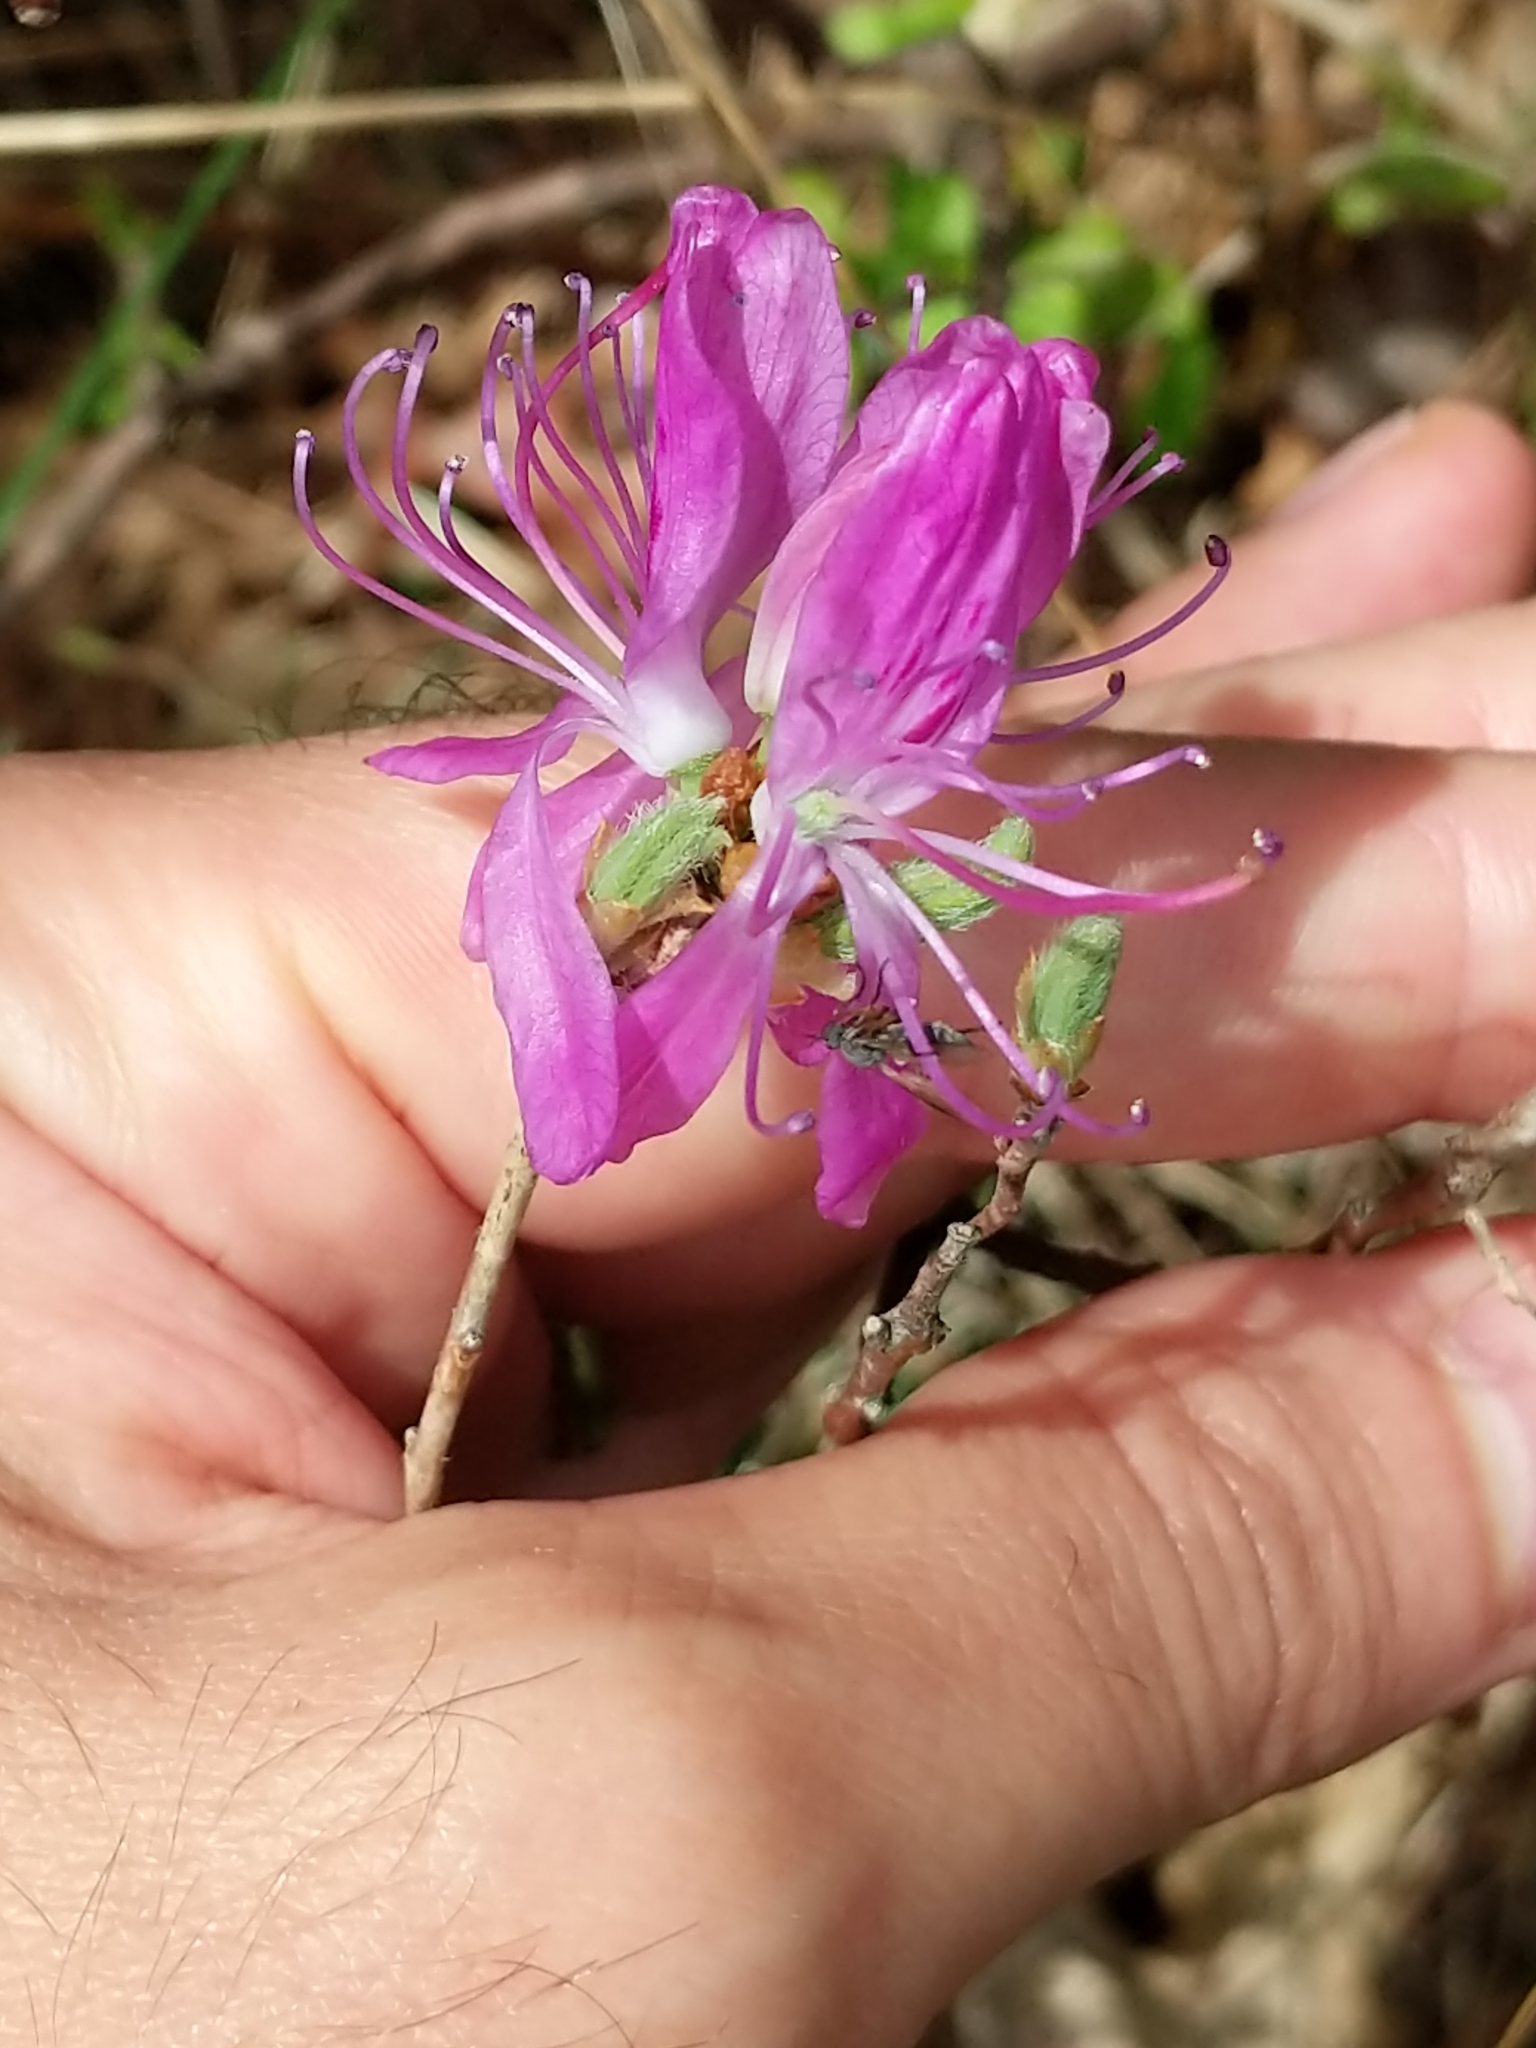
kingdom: Plantae
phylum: Tracheophyta
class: Magnoliopsida
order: Ericales
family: Ericaceae
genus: Rhododendron
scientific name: Rhododendron canadense
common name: Rhodora
